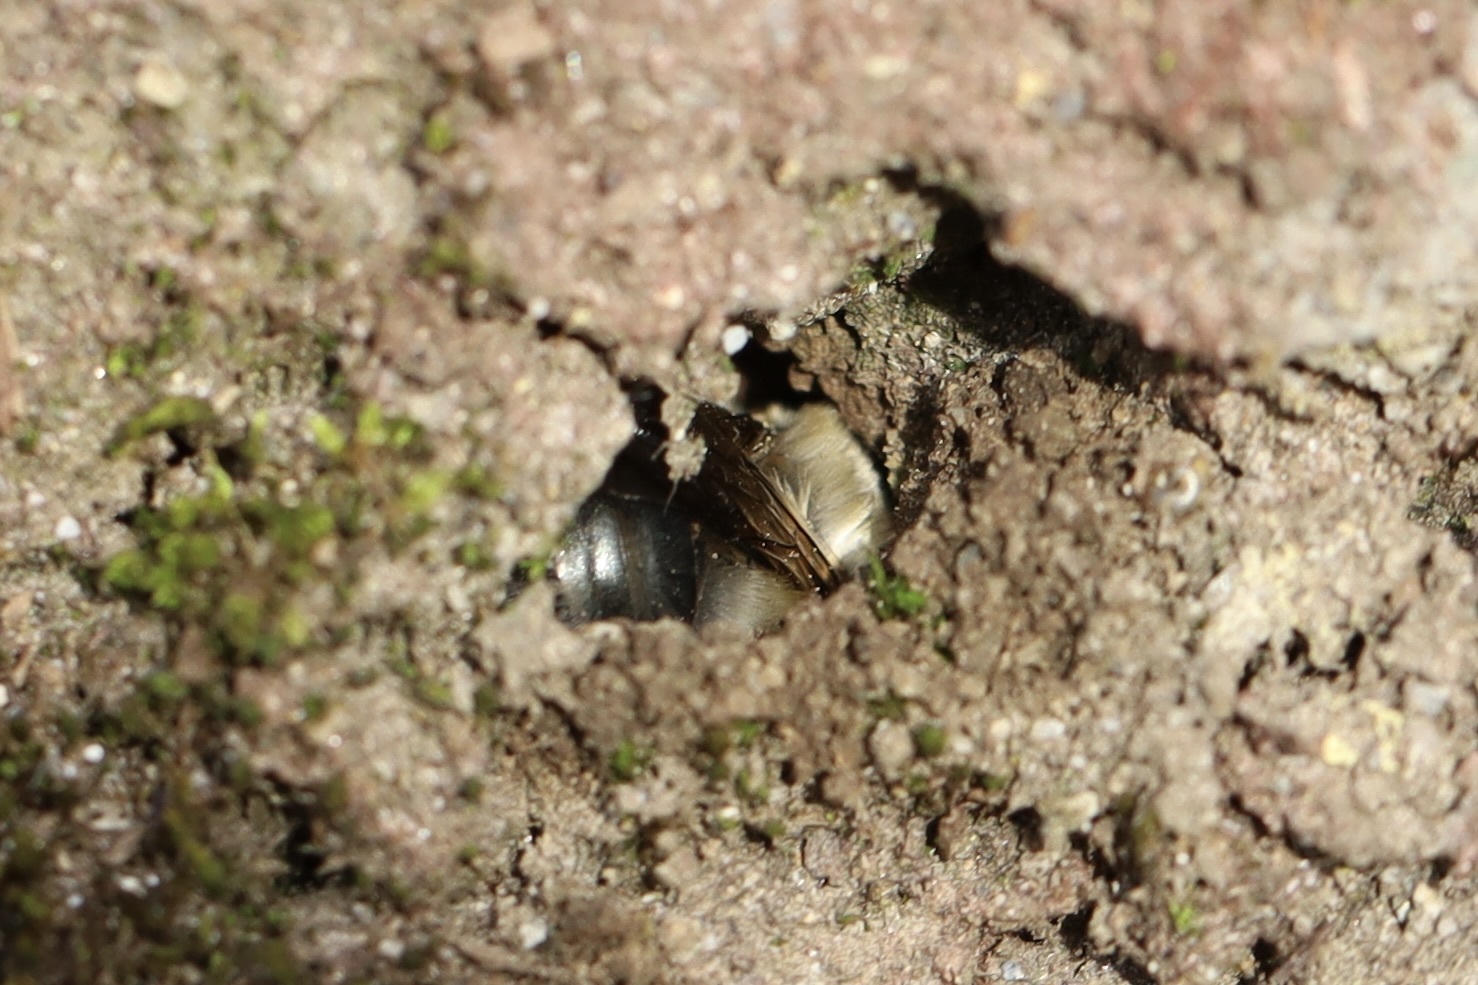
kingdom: Animalia
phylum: Arthropoda
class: Insecta
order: Hymenoptera
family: Apidae
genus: Anthophora
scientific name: Anthophora pacifica
